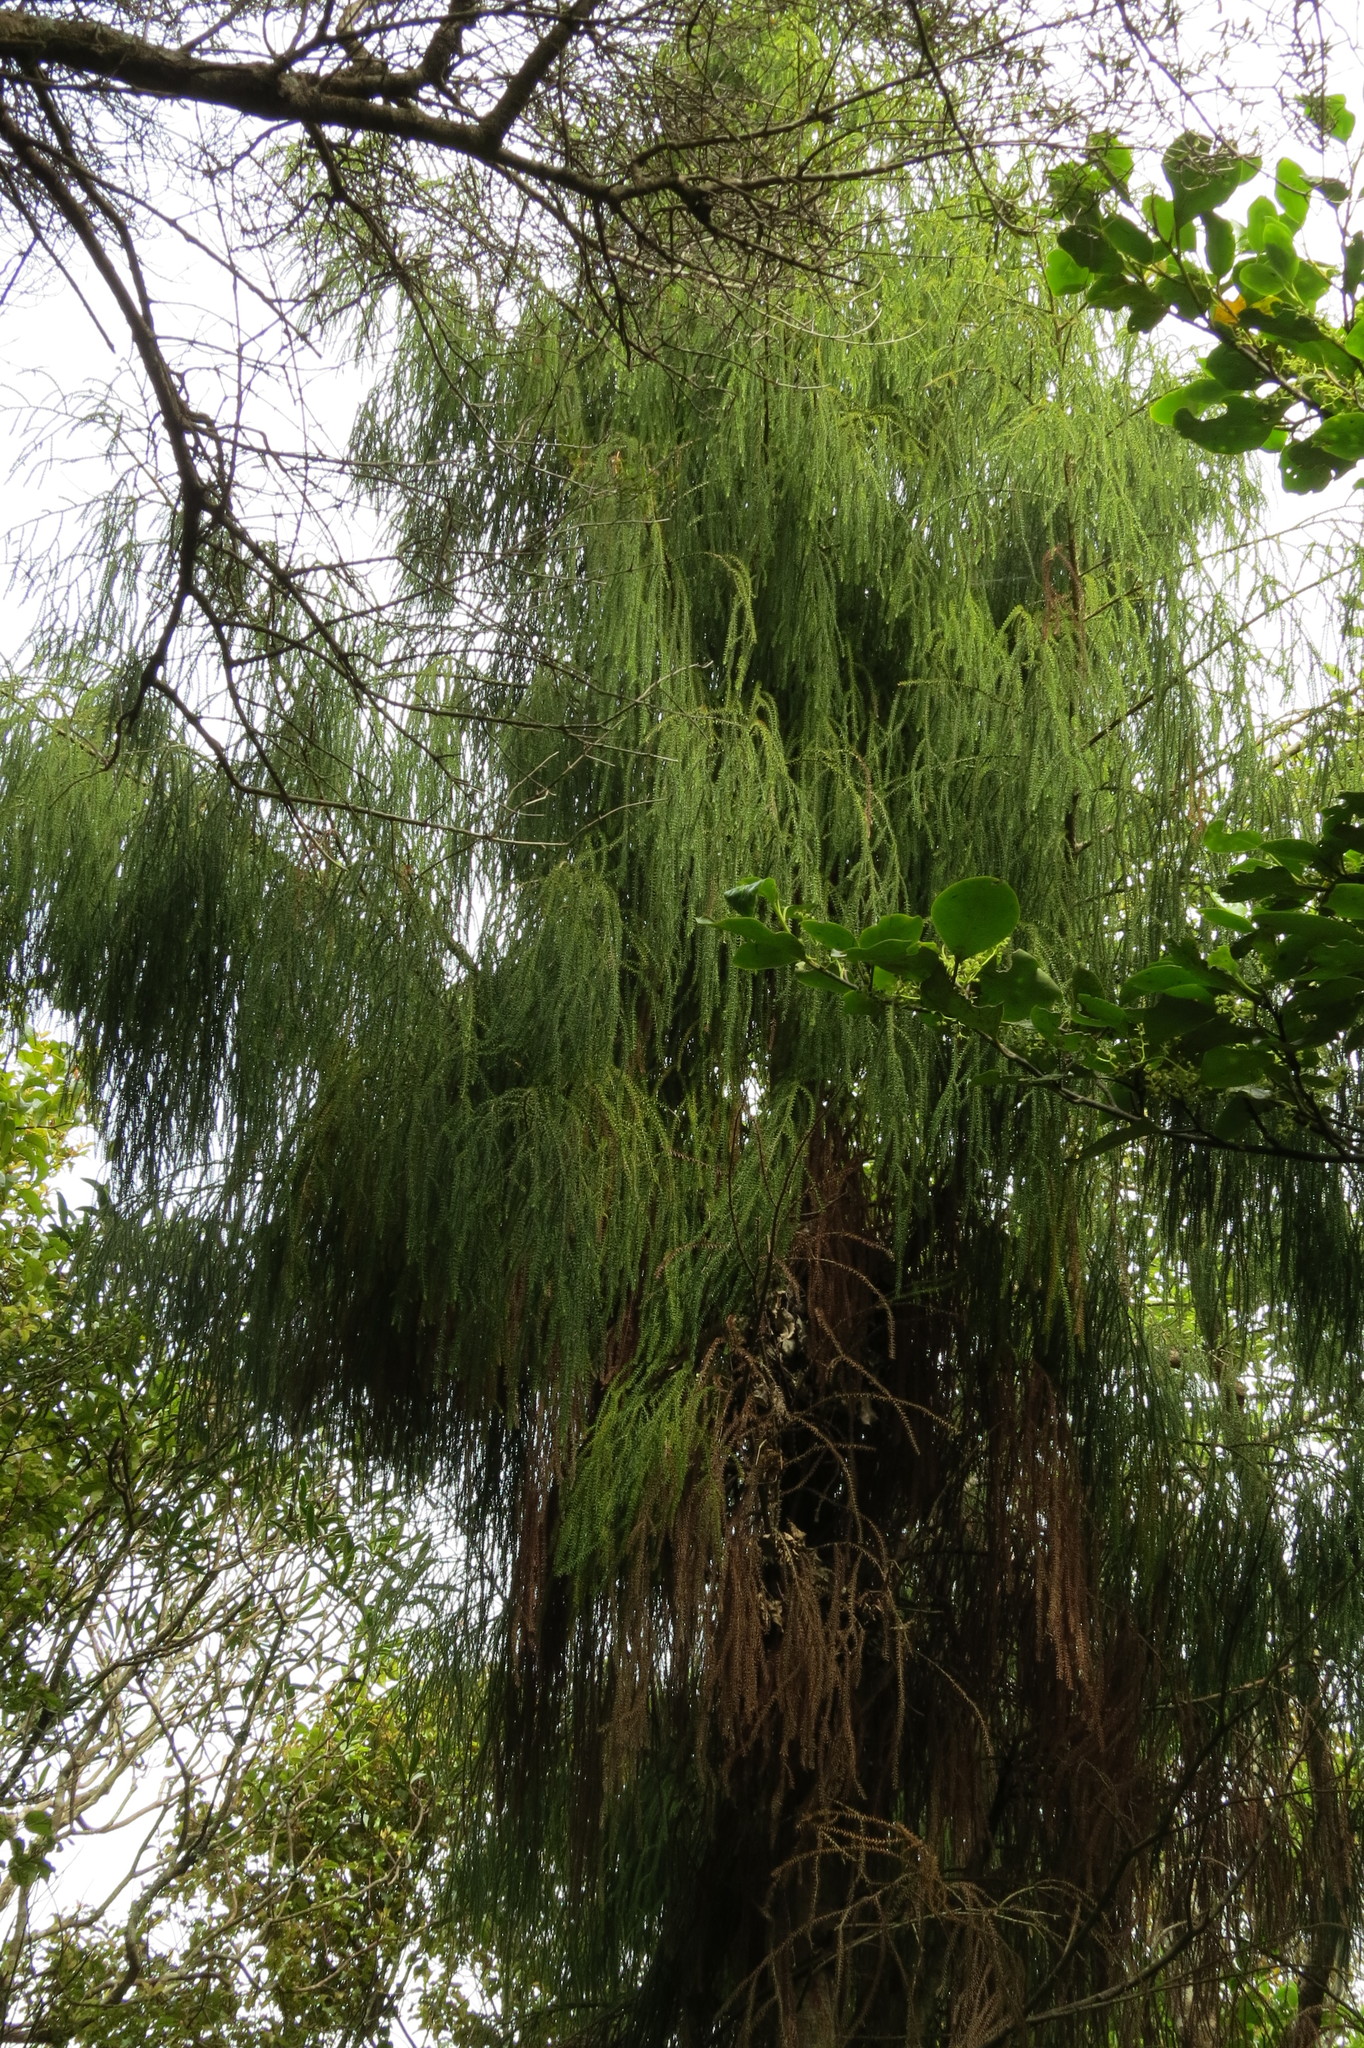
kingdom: Plantae
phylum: Tracheophyta
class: Pinopsida
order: Pinales
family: Podocarpaceae
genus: Dacrydium
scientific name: Dacrydium cupressinum
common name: Red pine
